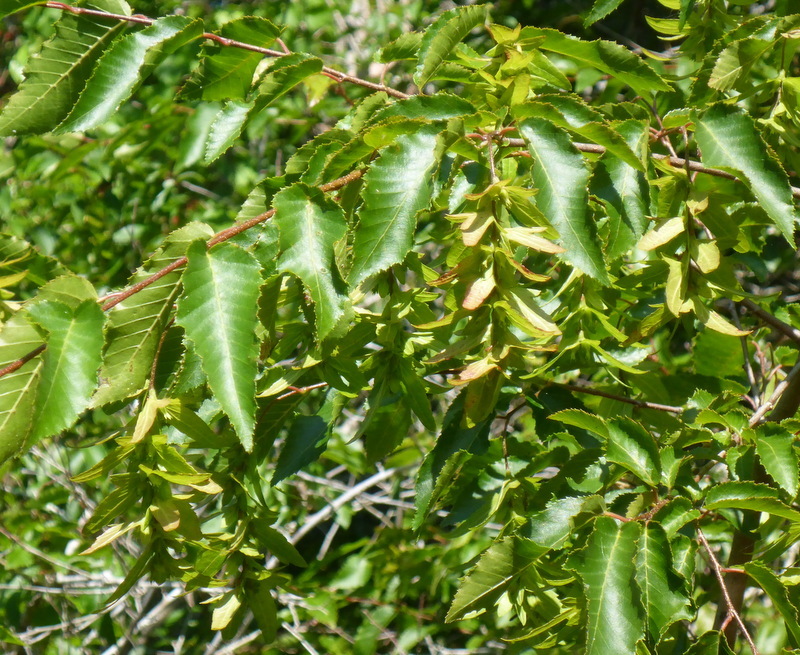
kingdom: Plantae
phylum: Tracheophyta
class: Magnoliopsida
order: Fagales
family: Betulaceae
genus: Carpinus
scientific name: Carpinus caroliniana
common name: American hornbeam
